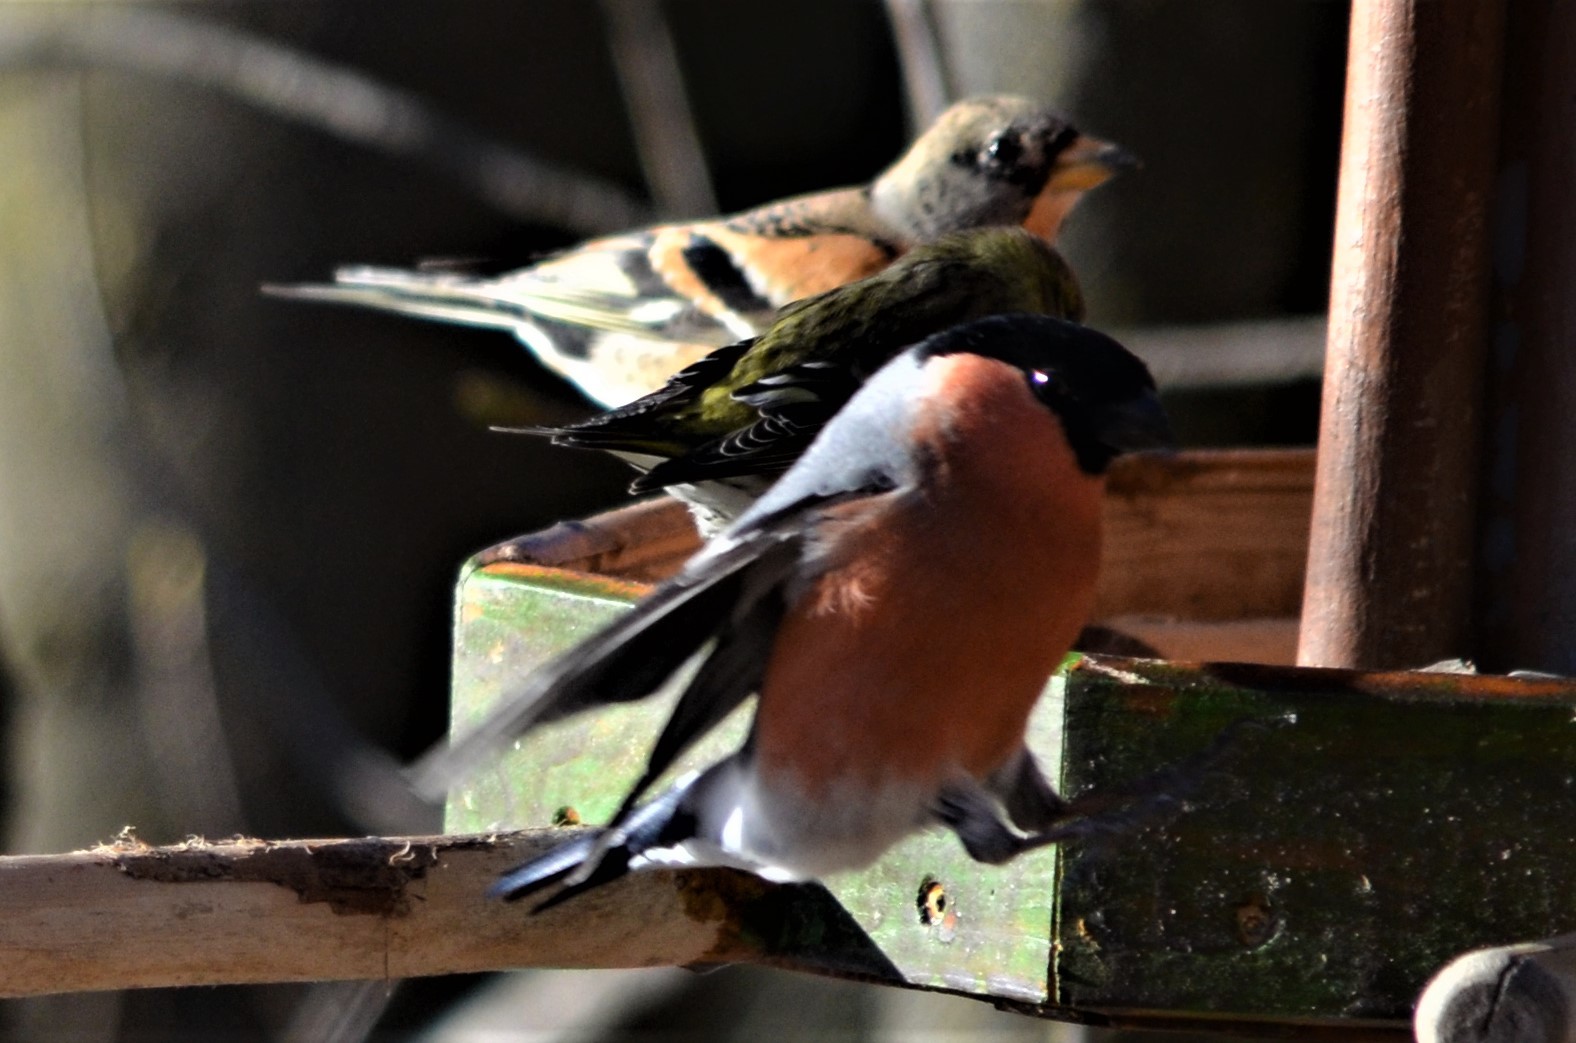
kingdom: Animalia
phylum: Chordata
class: Aves
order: Passeriformes
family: Fringillidae
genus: Spinus
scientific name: Spinus spinus
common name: Eurasian siskin
